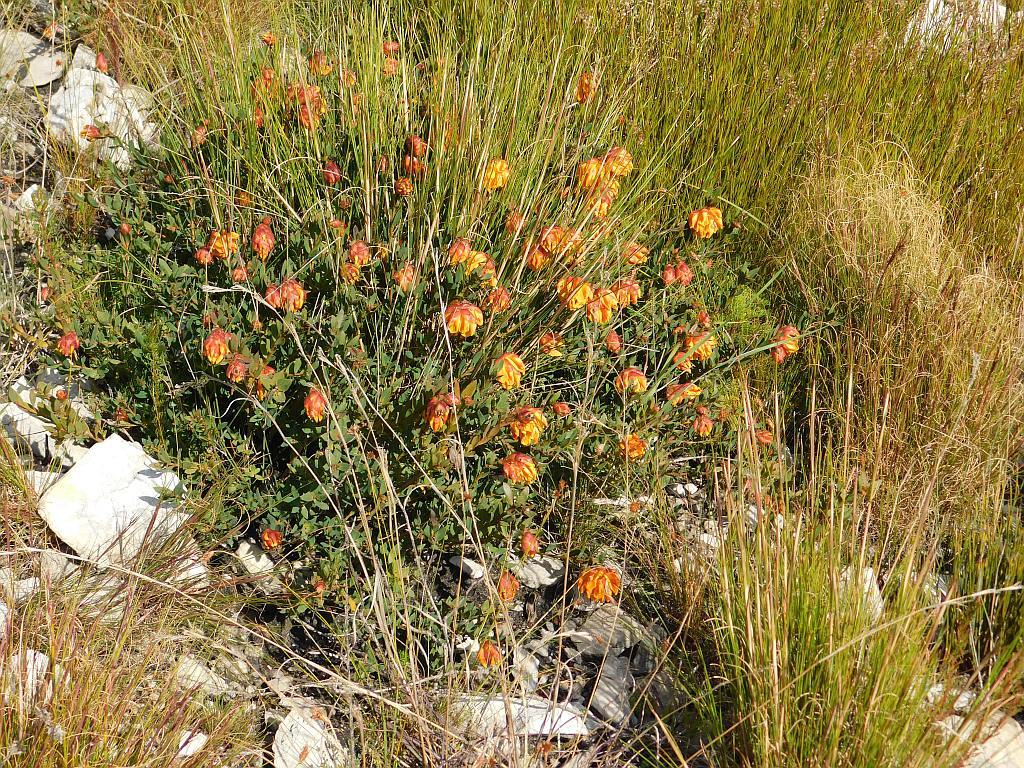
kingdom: Plantae
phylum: Tracheophyta
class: Magnoliopsida
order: Fabales
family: Fabaceae
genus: Liparia
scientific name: Liparia splendens
